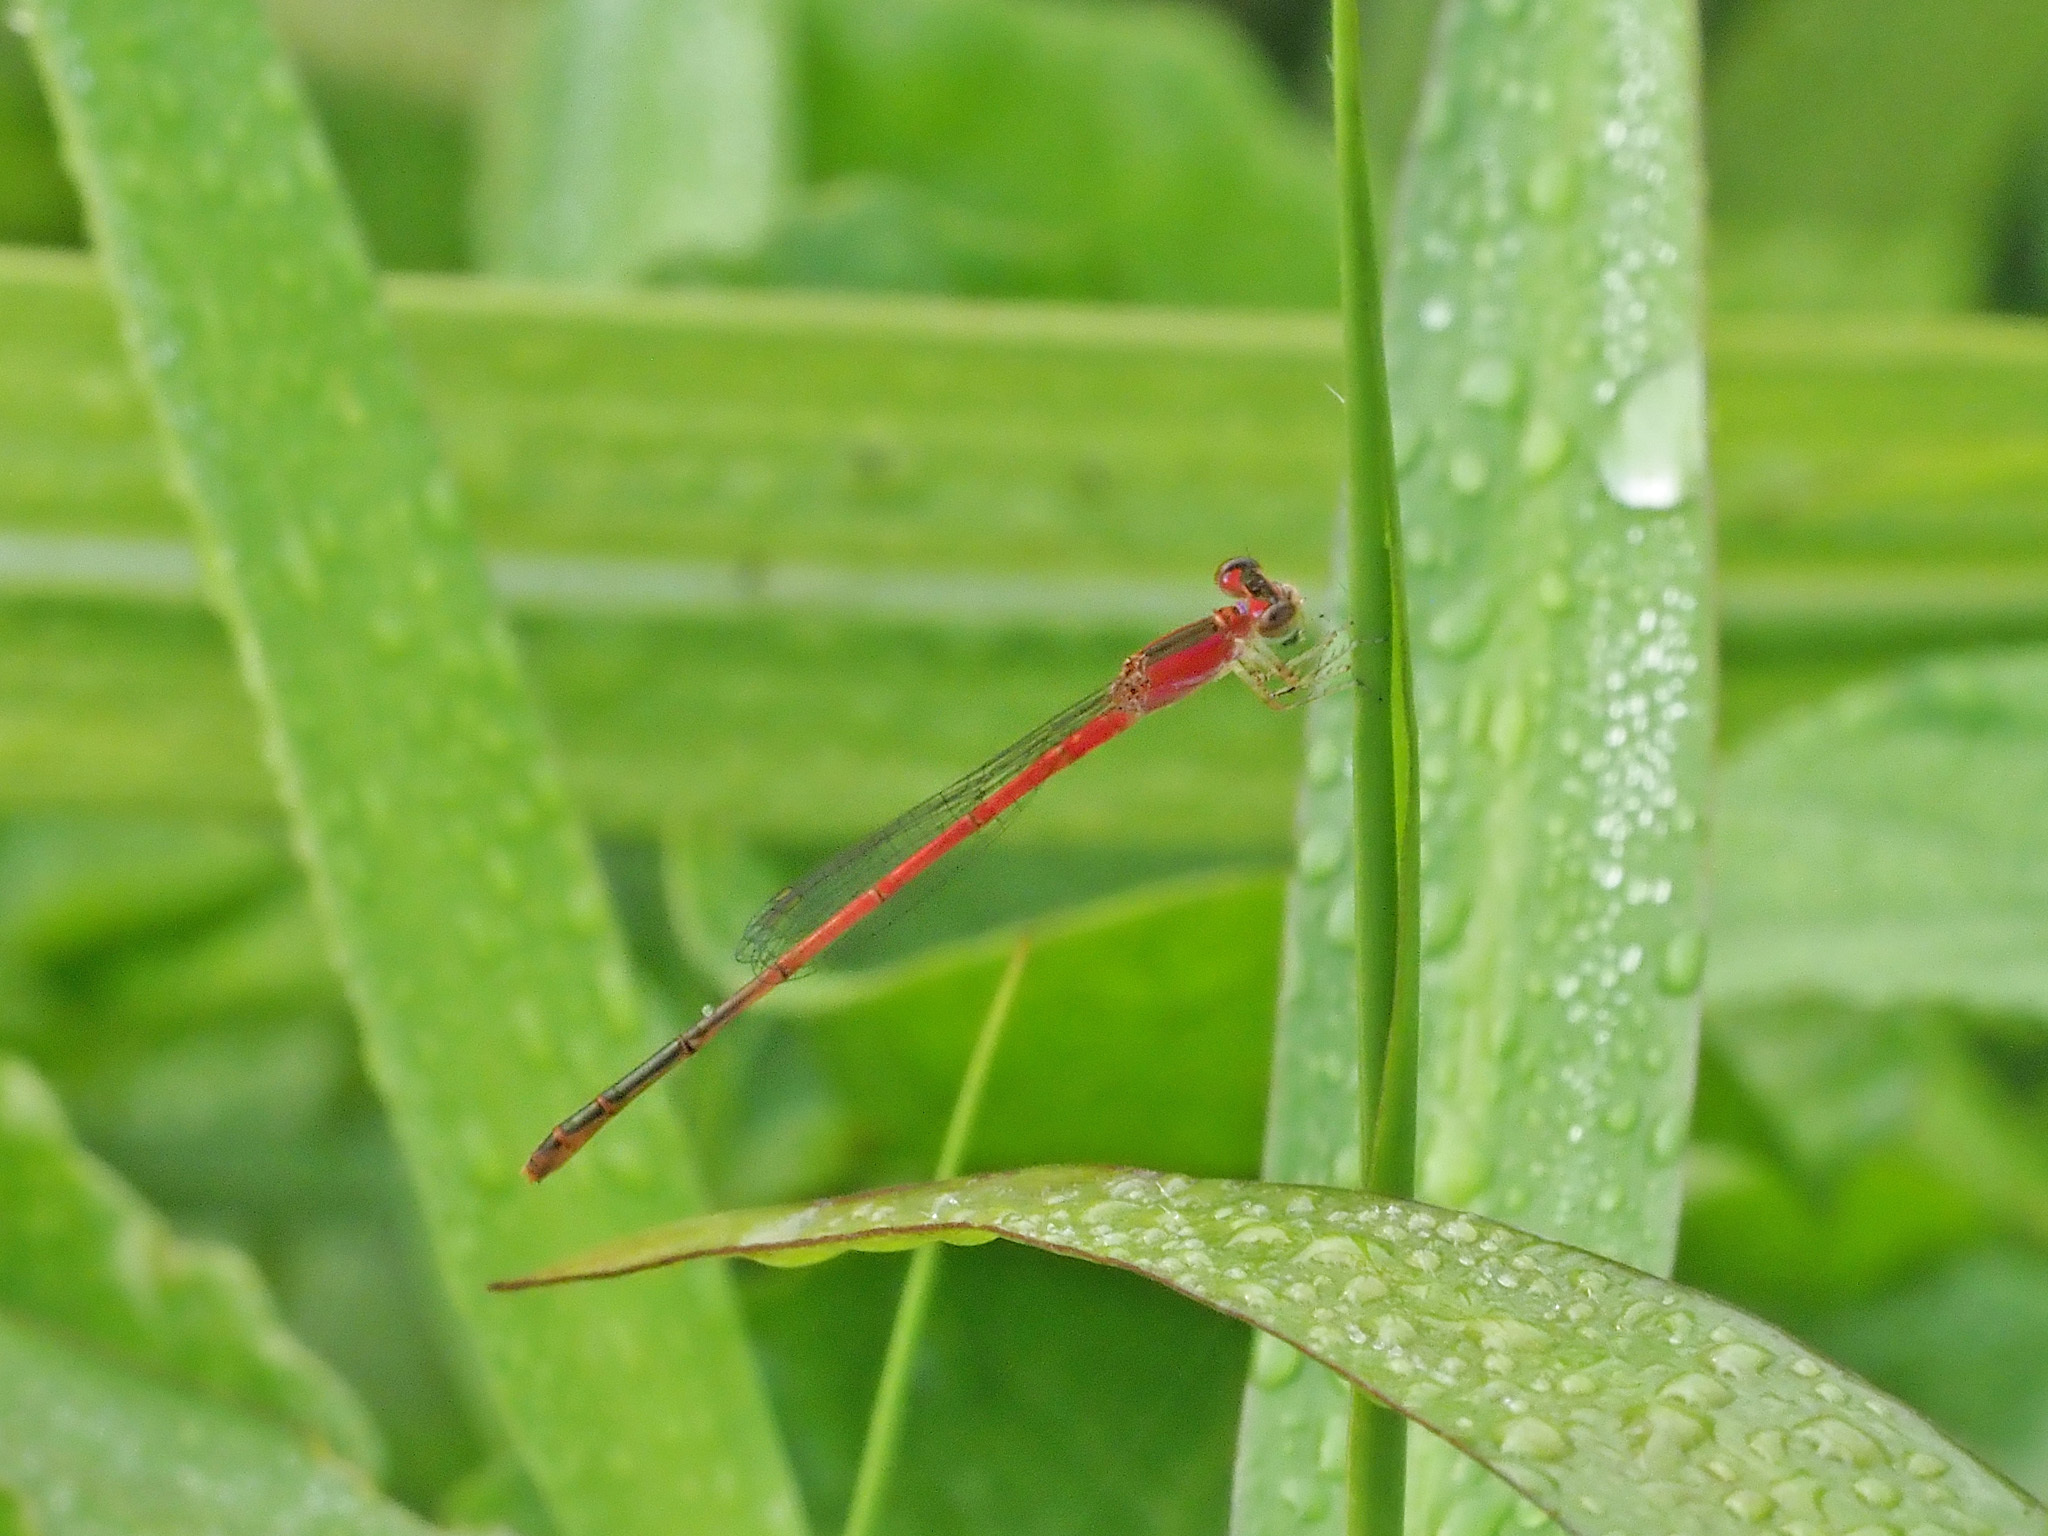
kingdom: Animalia
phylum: Arthropoda
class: Insecta
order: Odonata
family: Coenagrionidae
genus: Agriocnemis
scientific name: Agriocnemis femina
